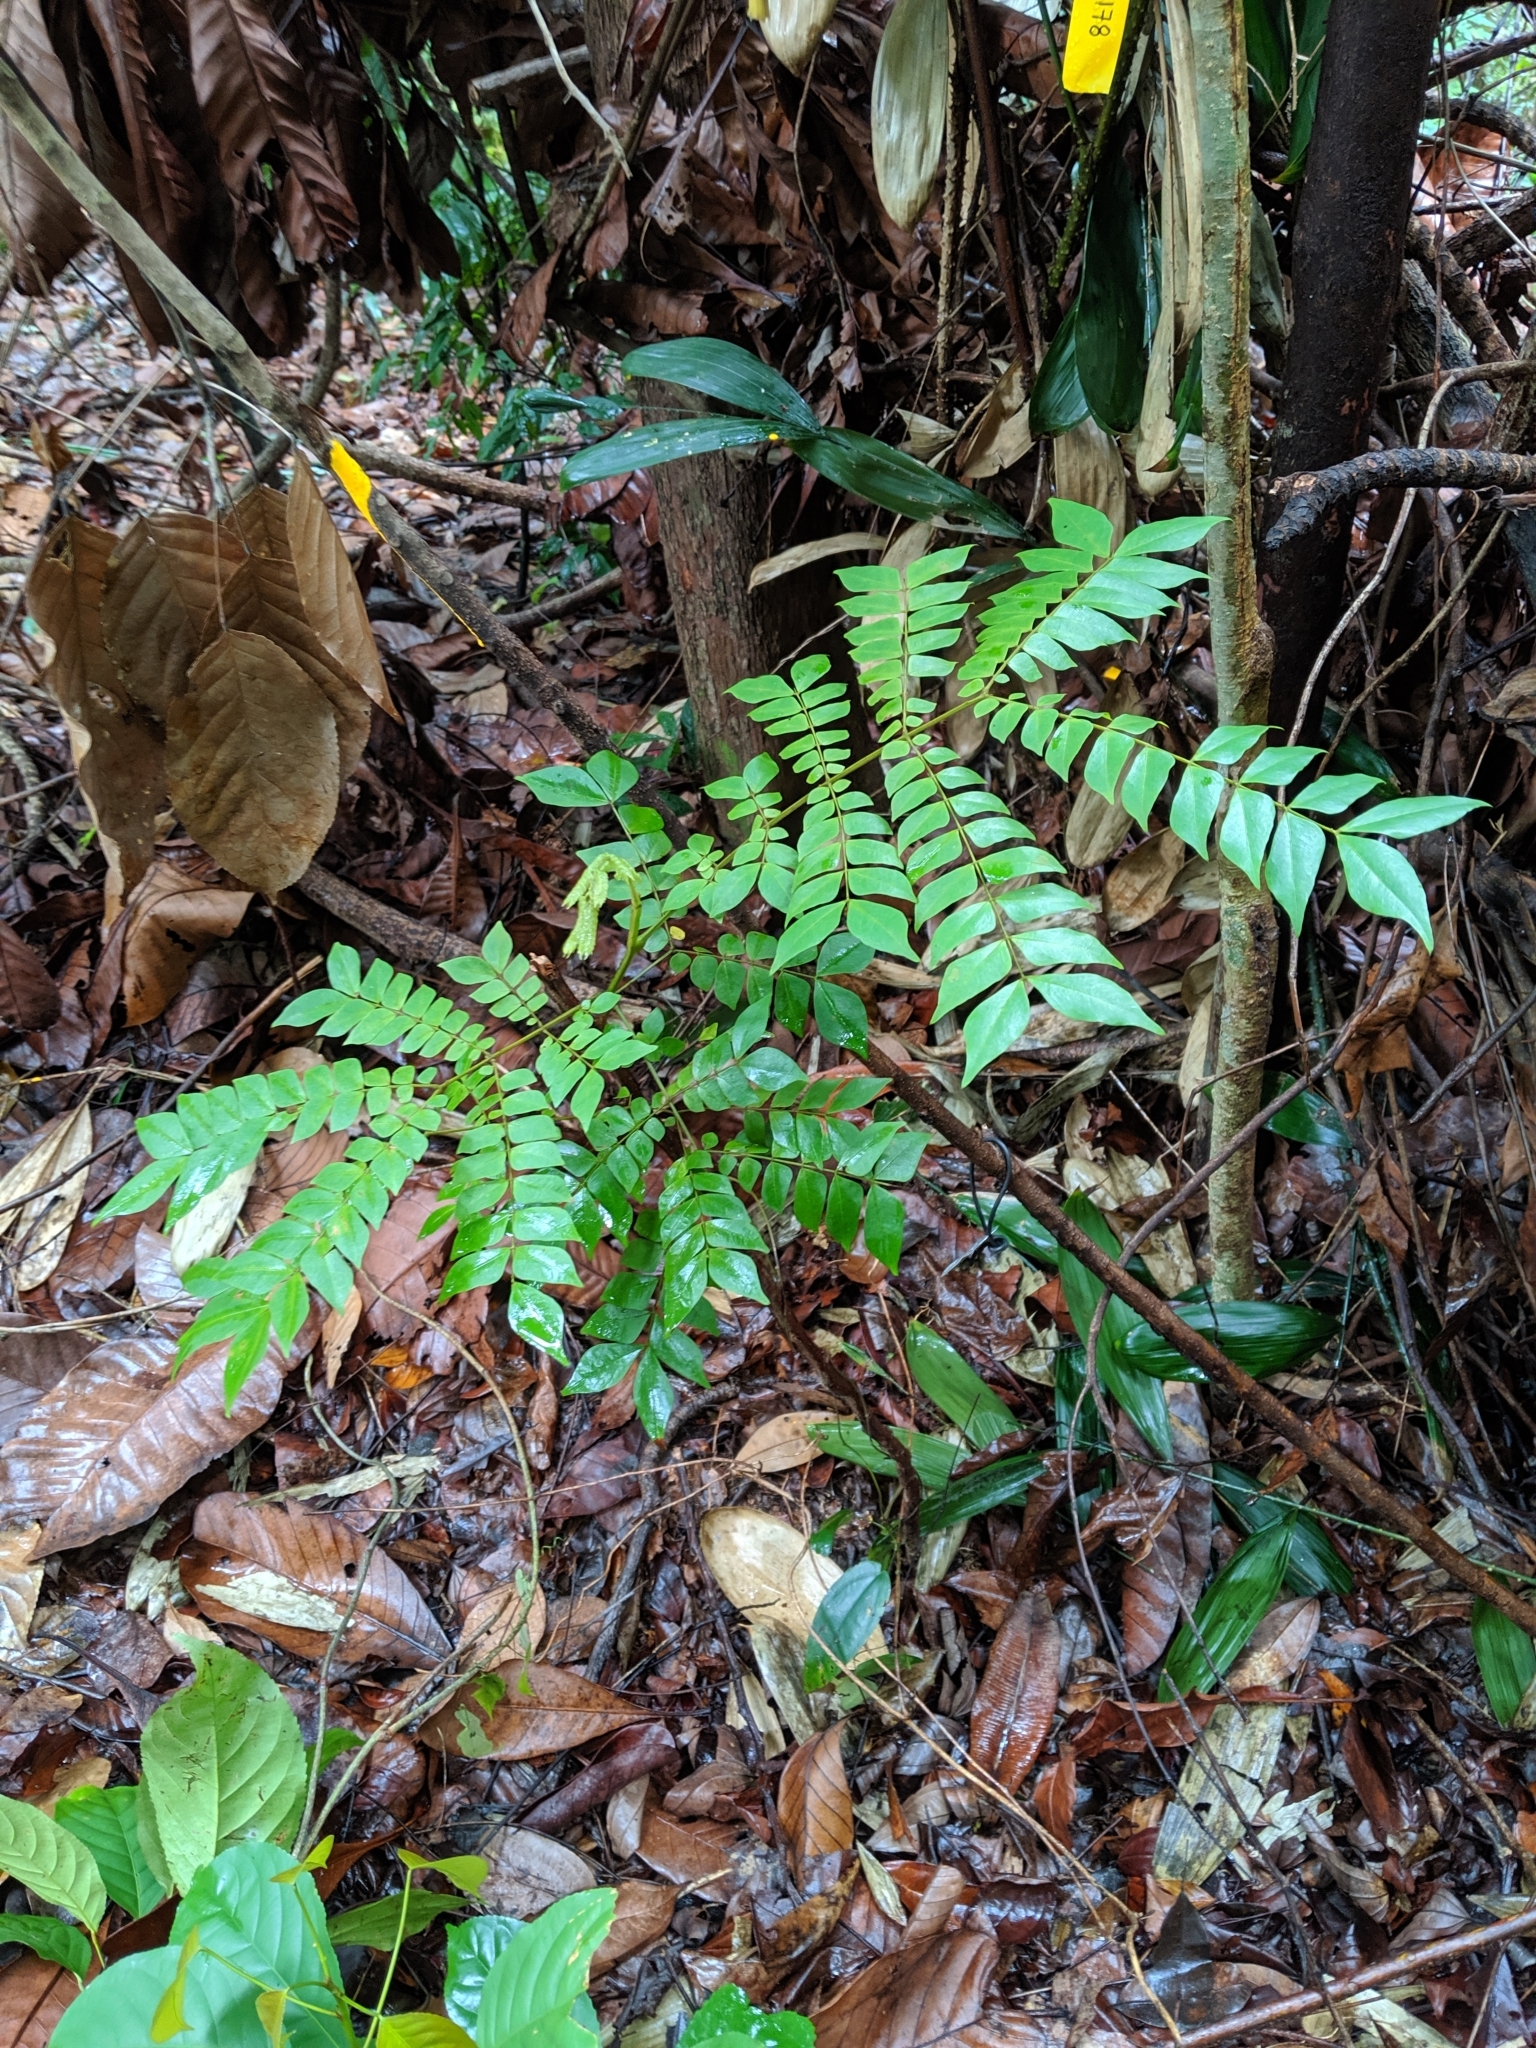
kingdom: Plantae
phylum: Tracheophyta
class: Magnoliopsida
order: Fabales
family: Fabaceae
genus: Archidendron
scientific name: Archidendron clypearia
